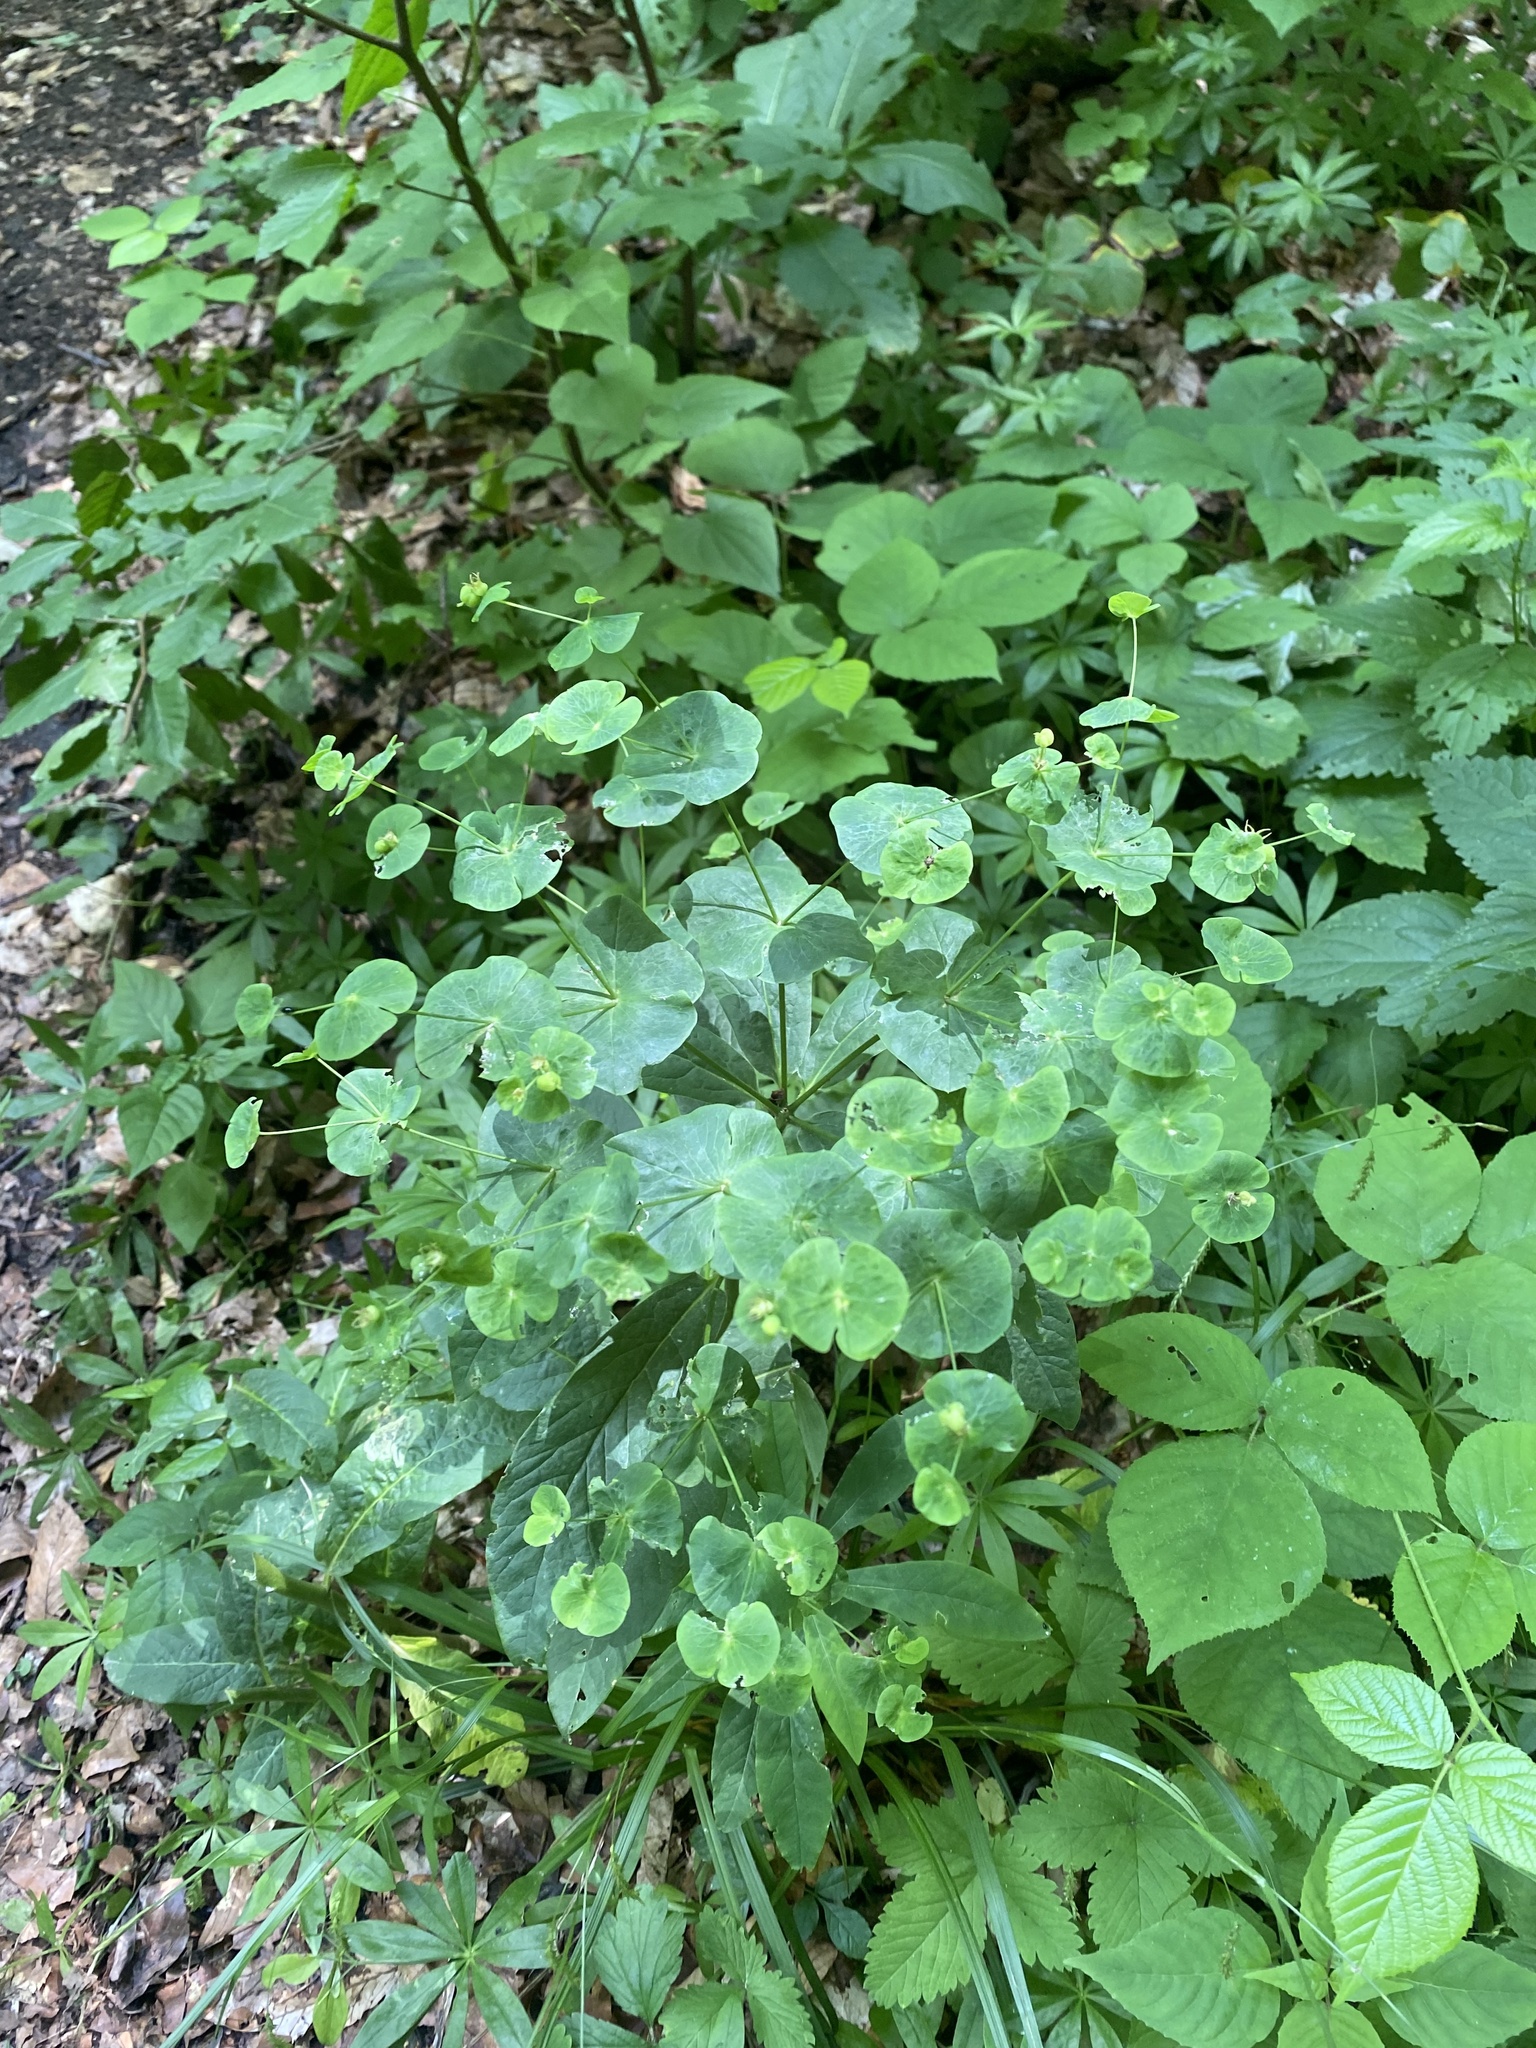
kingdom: Plantae
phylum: Tracheophyta
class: Magnoliopsida
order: Malpighiales
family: Euphorbiaceae
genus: Euphorbia
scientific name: Euphorbia macroceras
